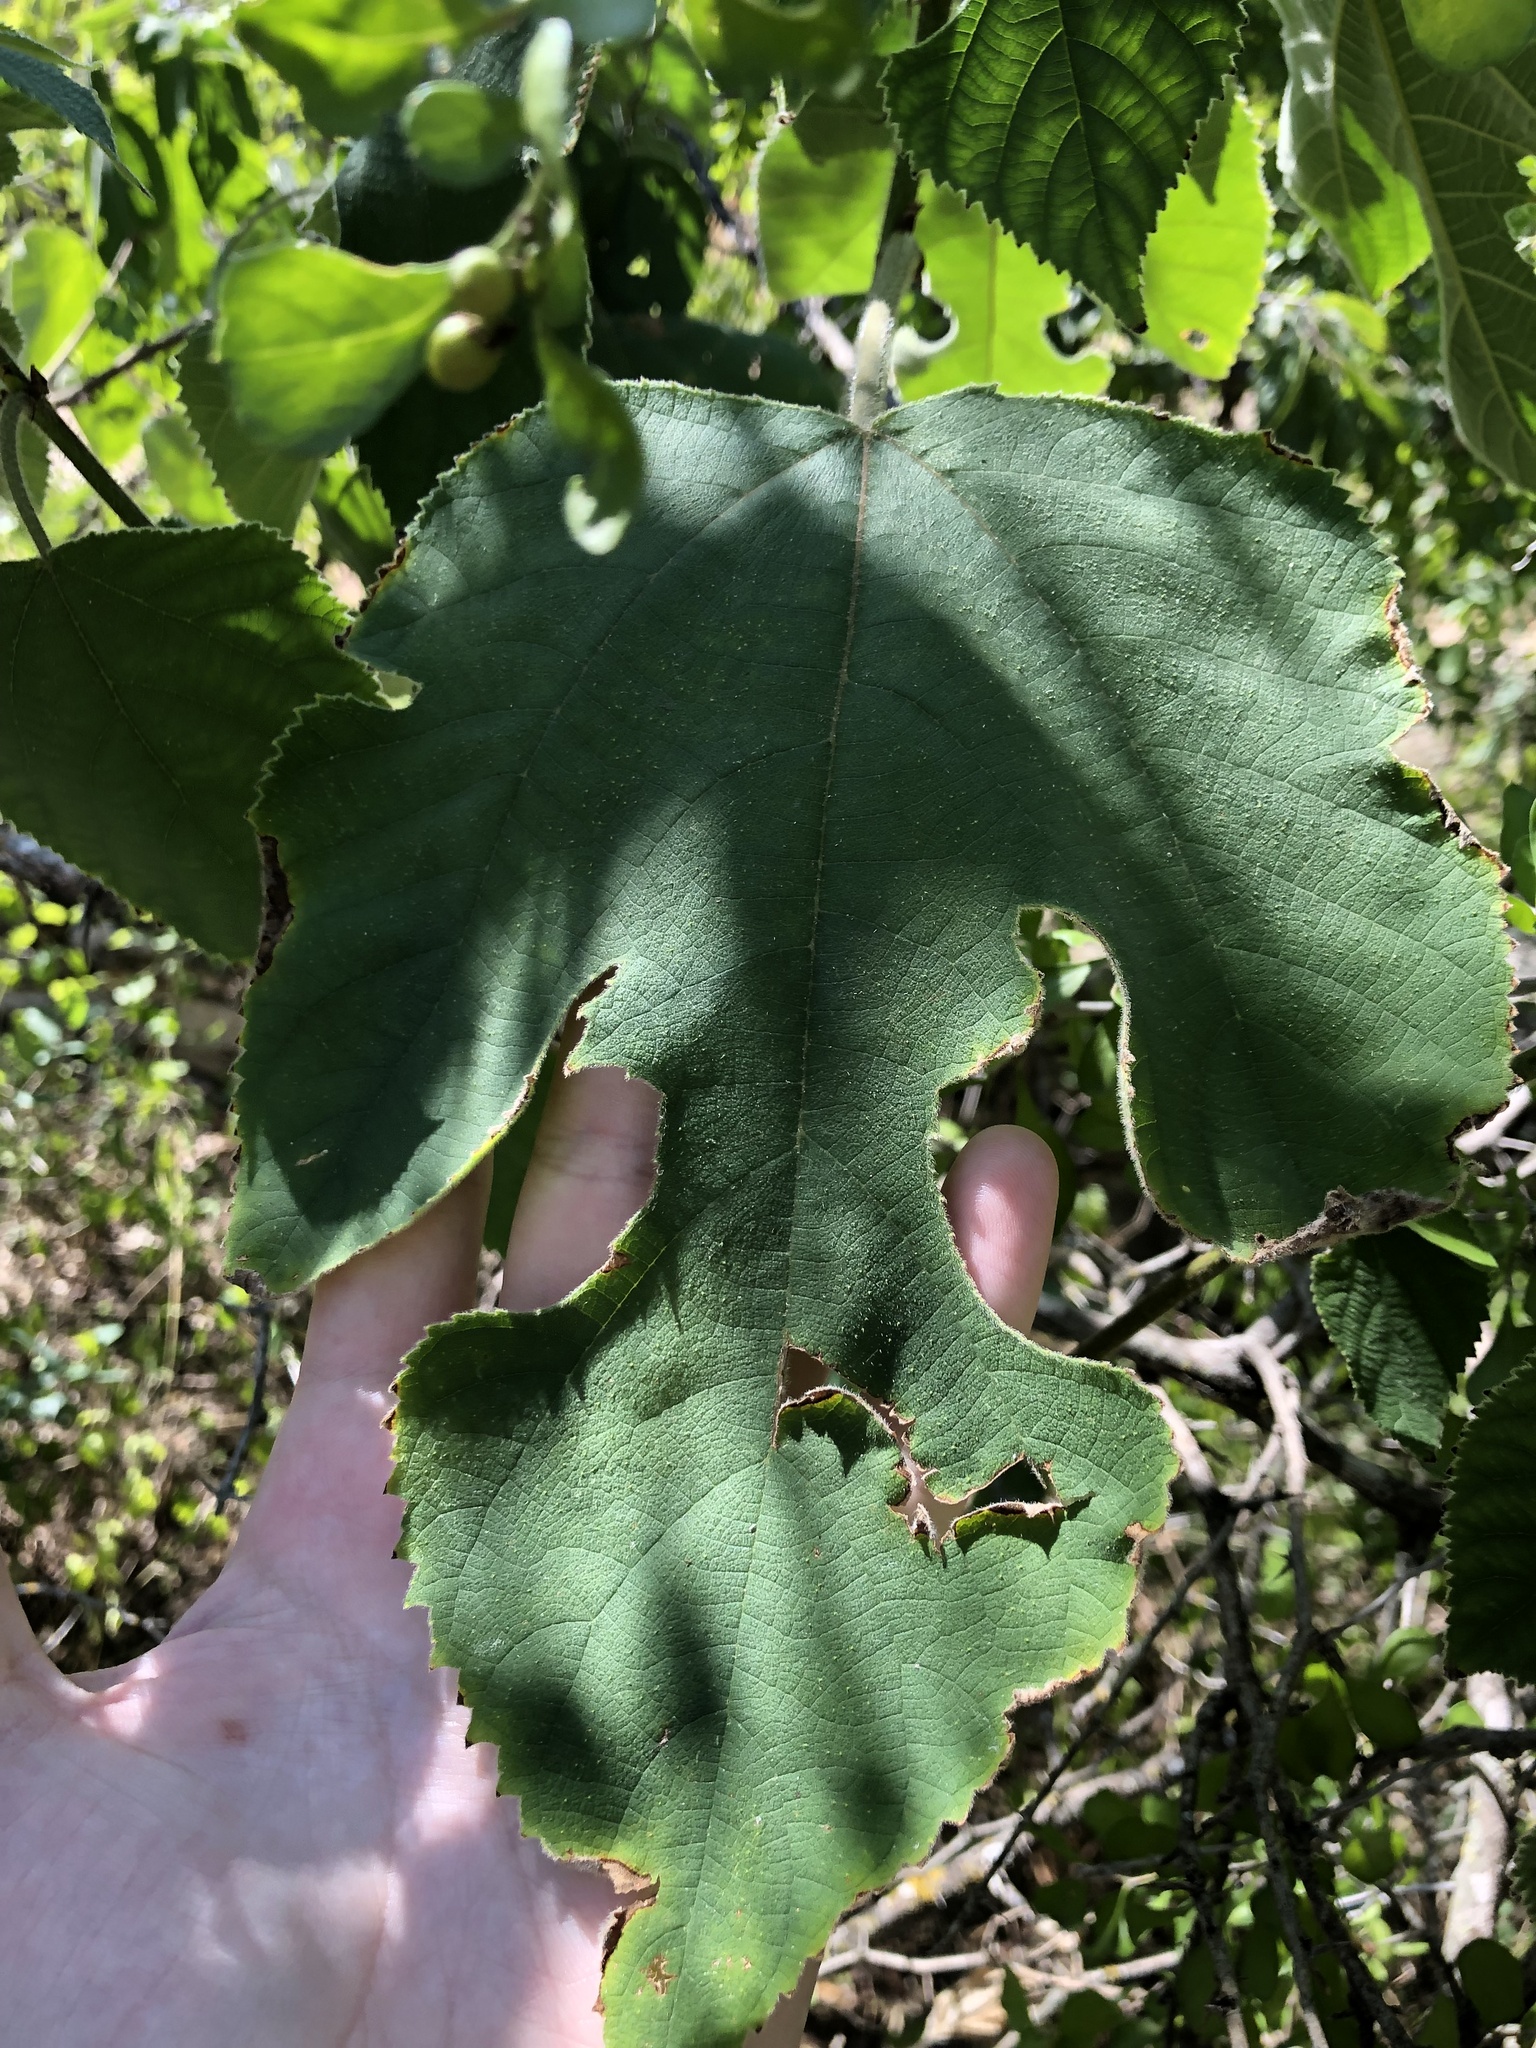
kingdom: Plantae
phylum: Tracheophyta
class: Magnoliopsida
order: Rosales
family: Moraceae
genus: Broussonetia
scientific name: Broussonetia papyrifera
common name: Paper mulberry
